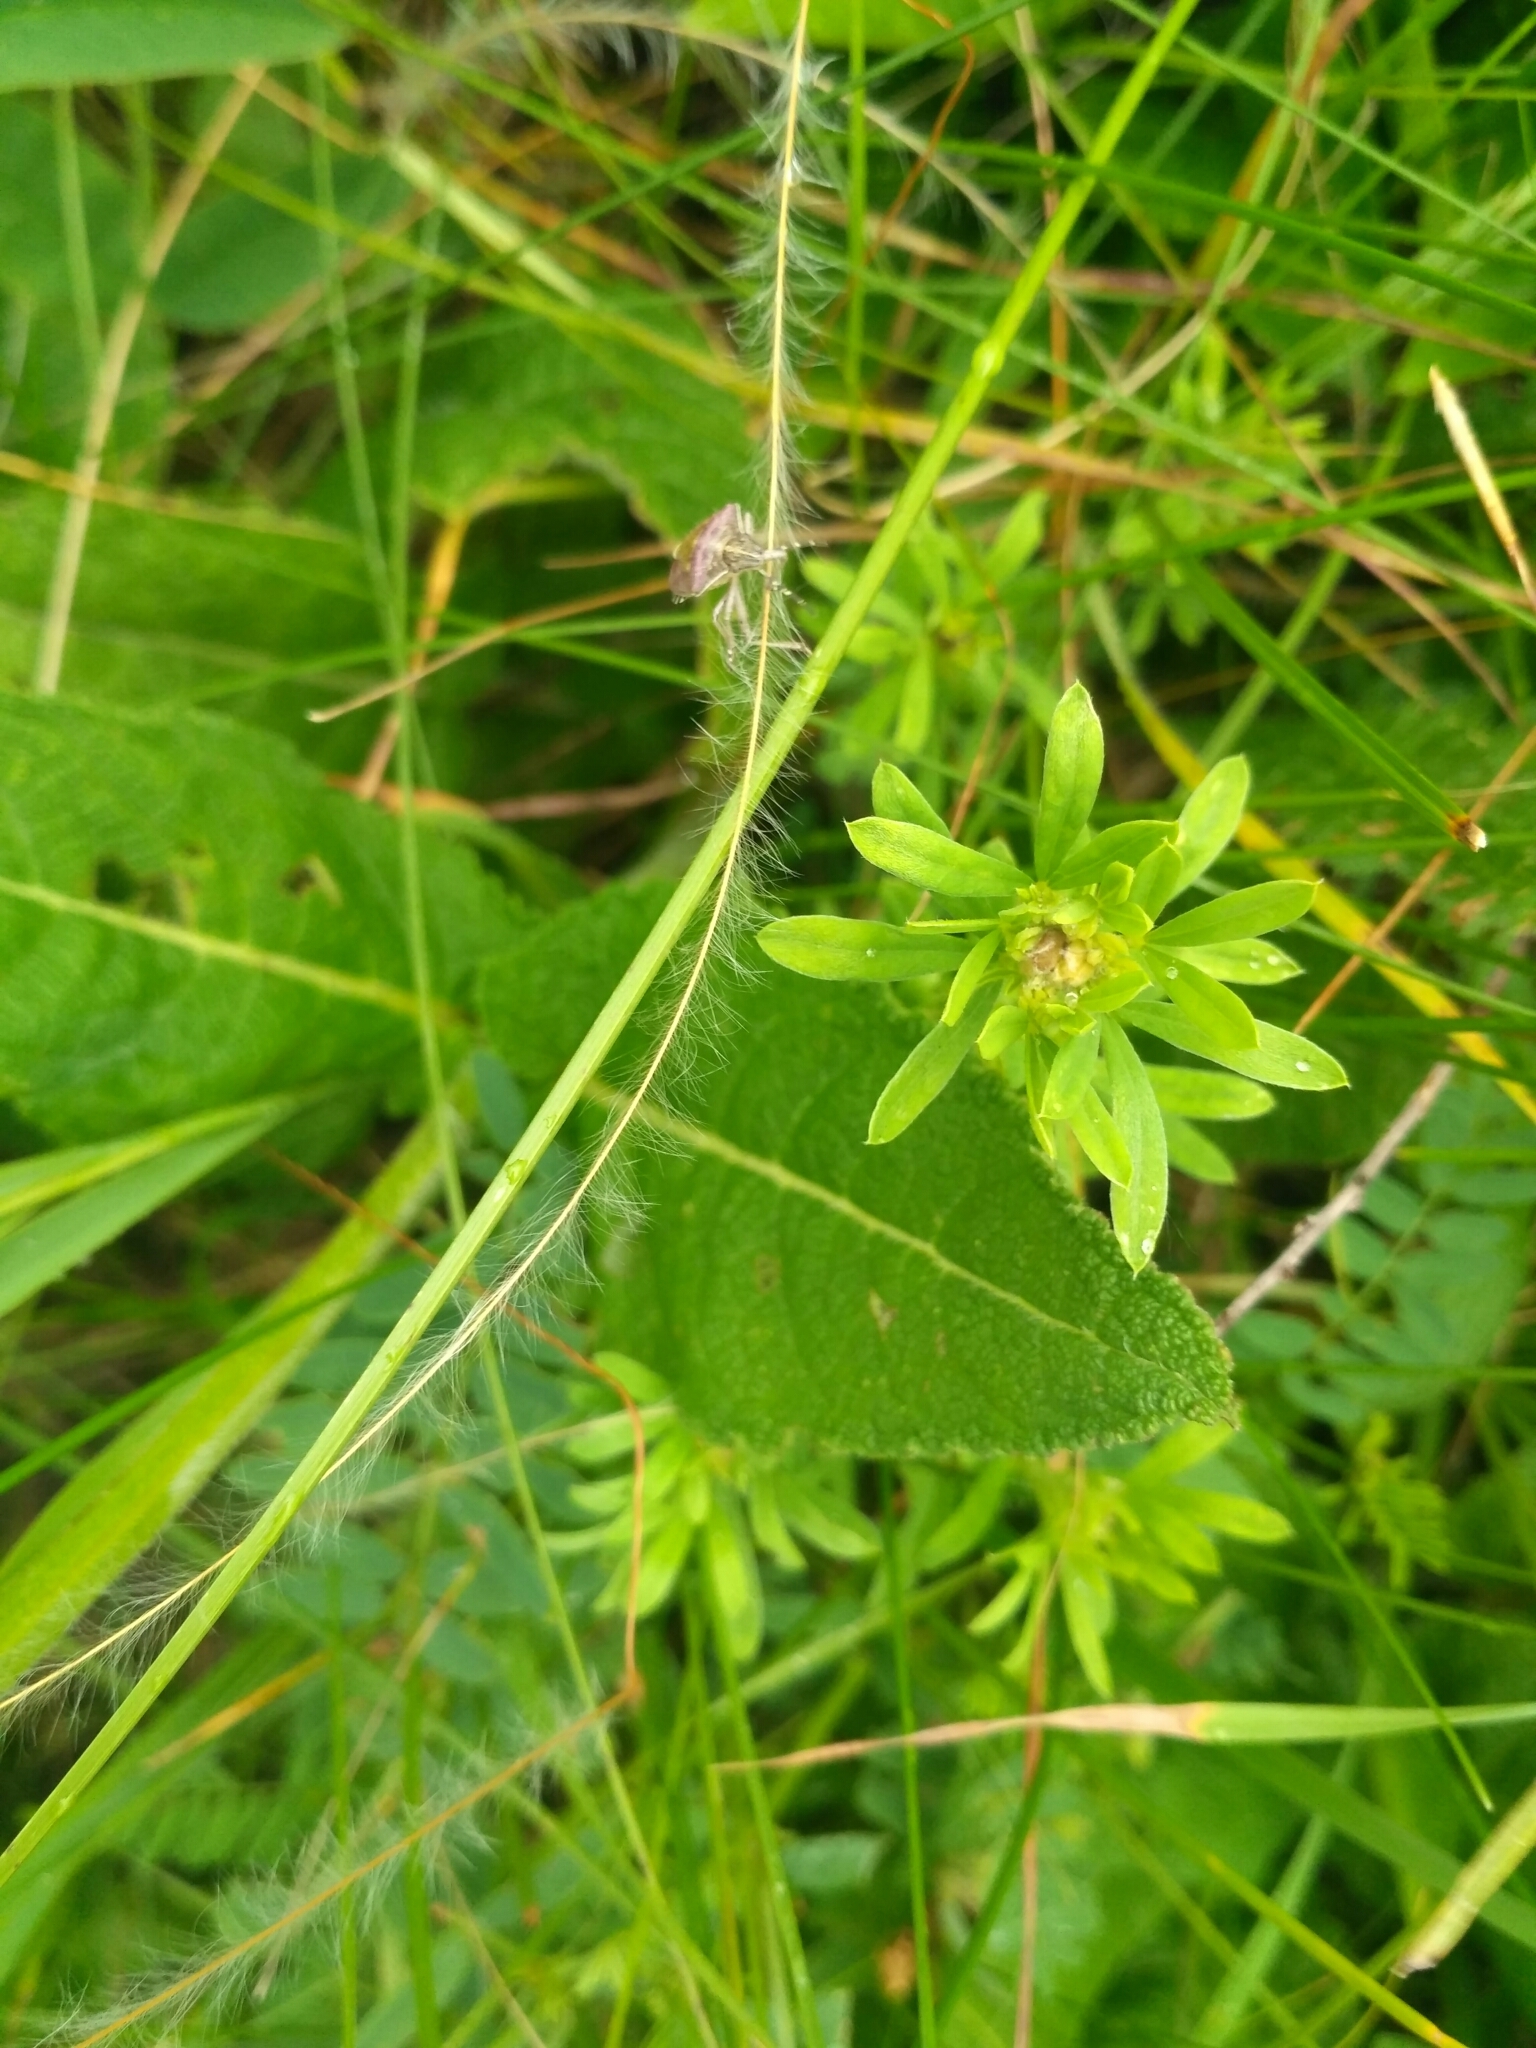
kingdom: Animalia
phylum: Arthropoda
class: Insecta
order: Hemiptera
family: Pentatomidae
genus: Dolycoris
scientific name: Dolycoris baccarum
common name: Sloe bug
